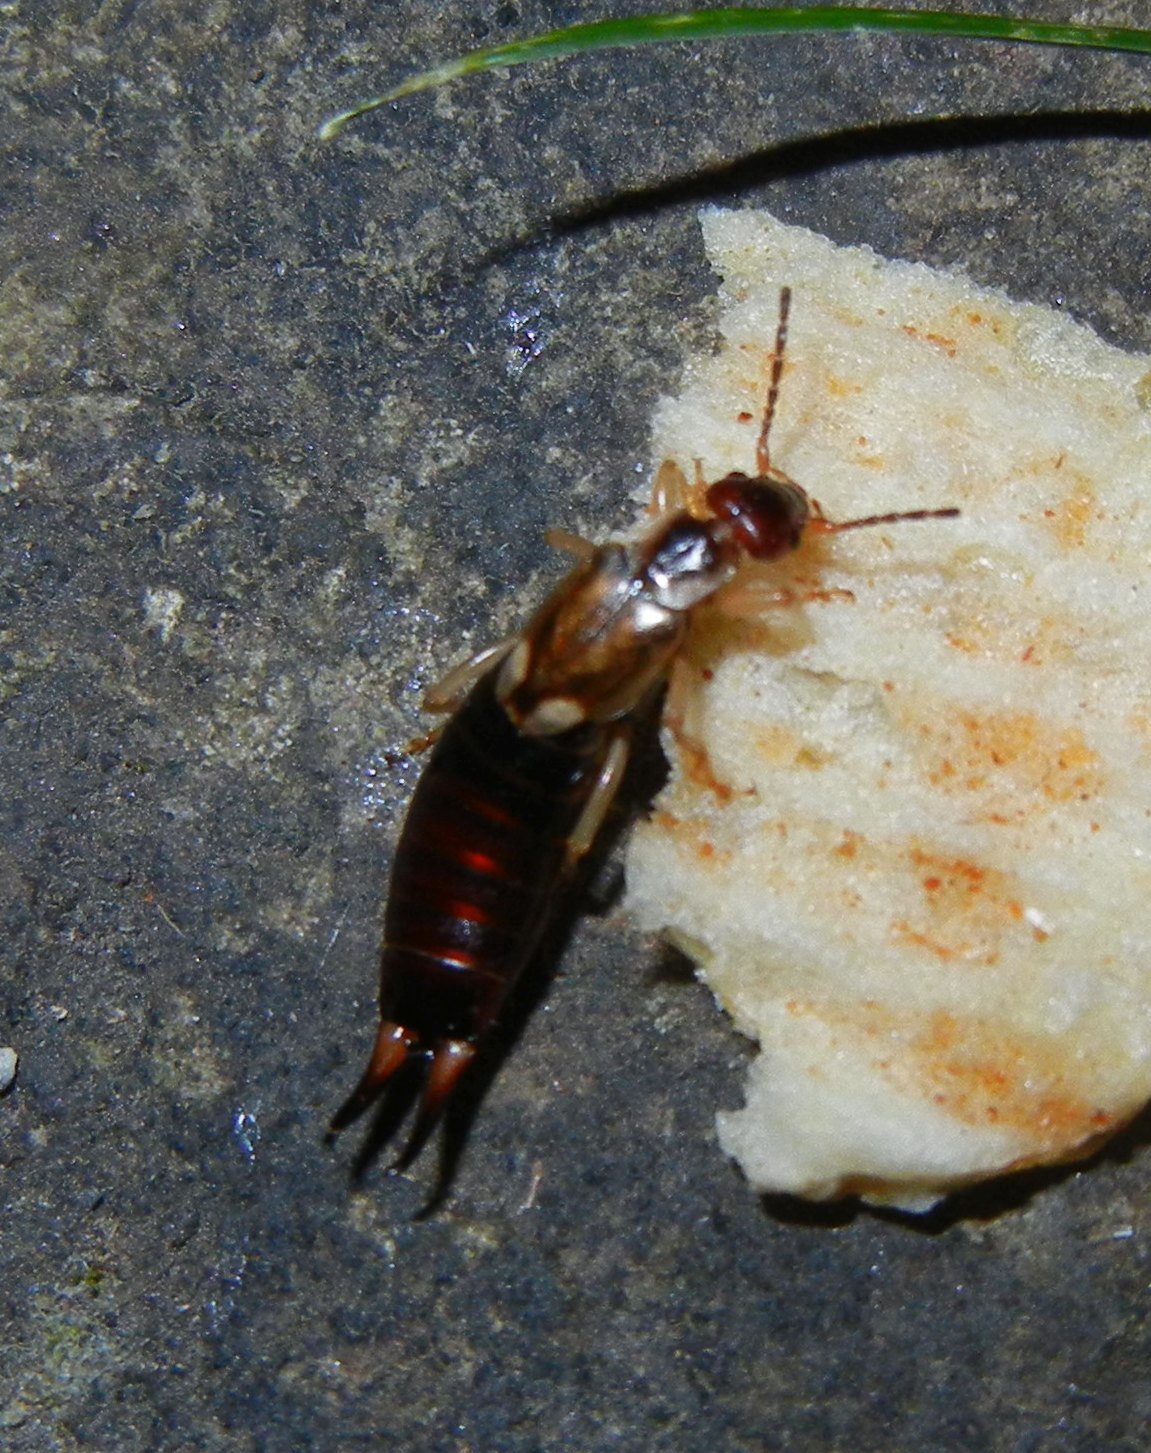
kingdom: Animalia
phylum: Arthropoda
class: Insecta
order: Dermaptera
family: Forficulidae
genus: Forficula
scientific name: Forficula
